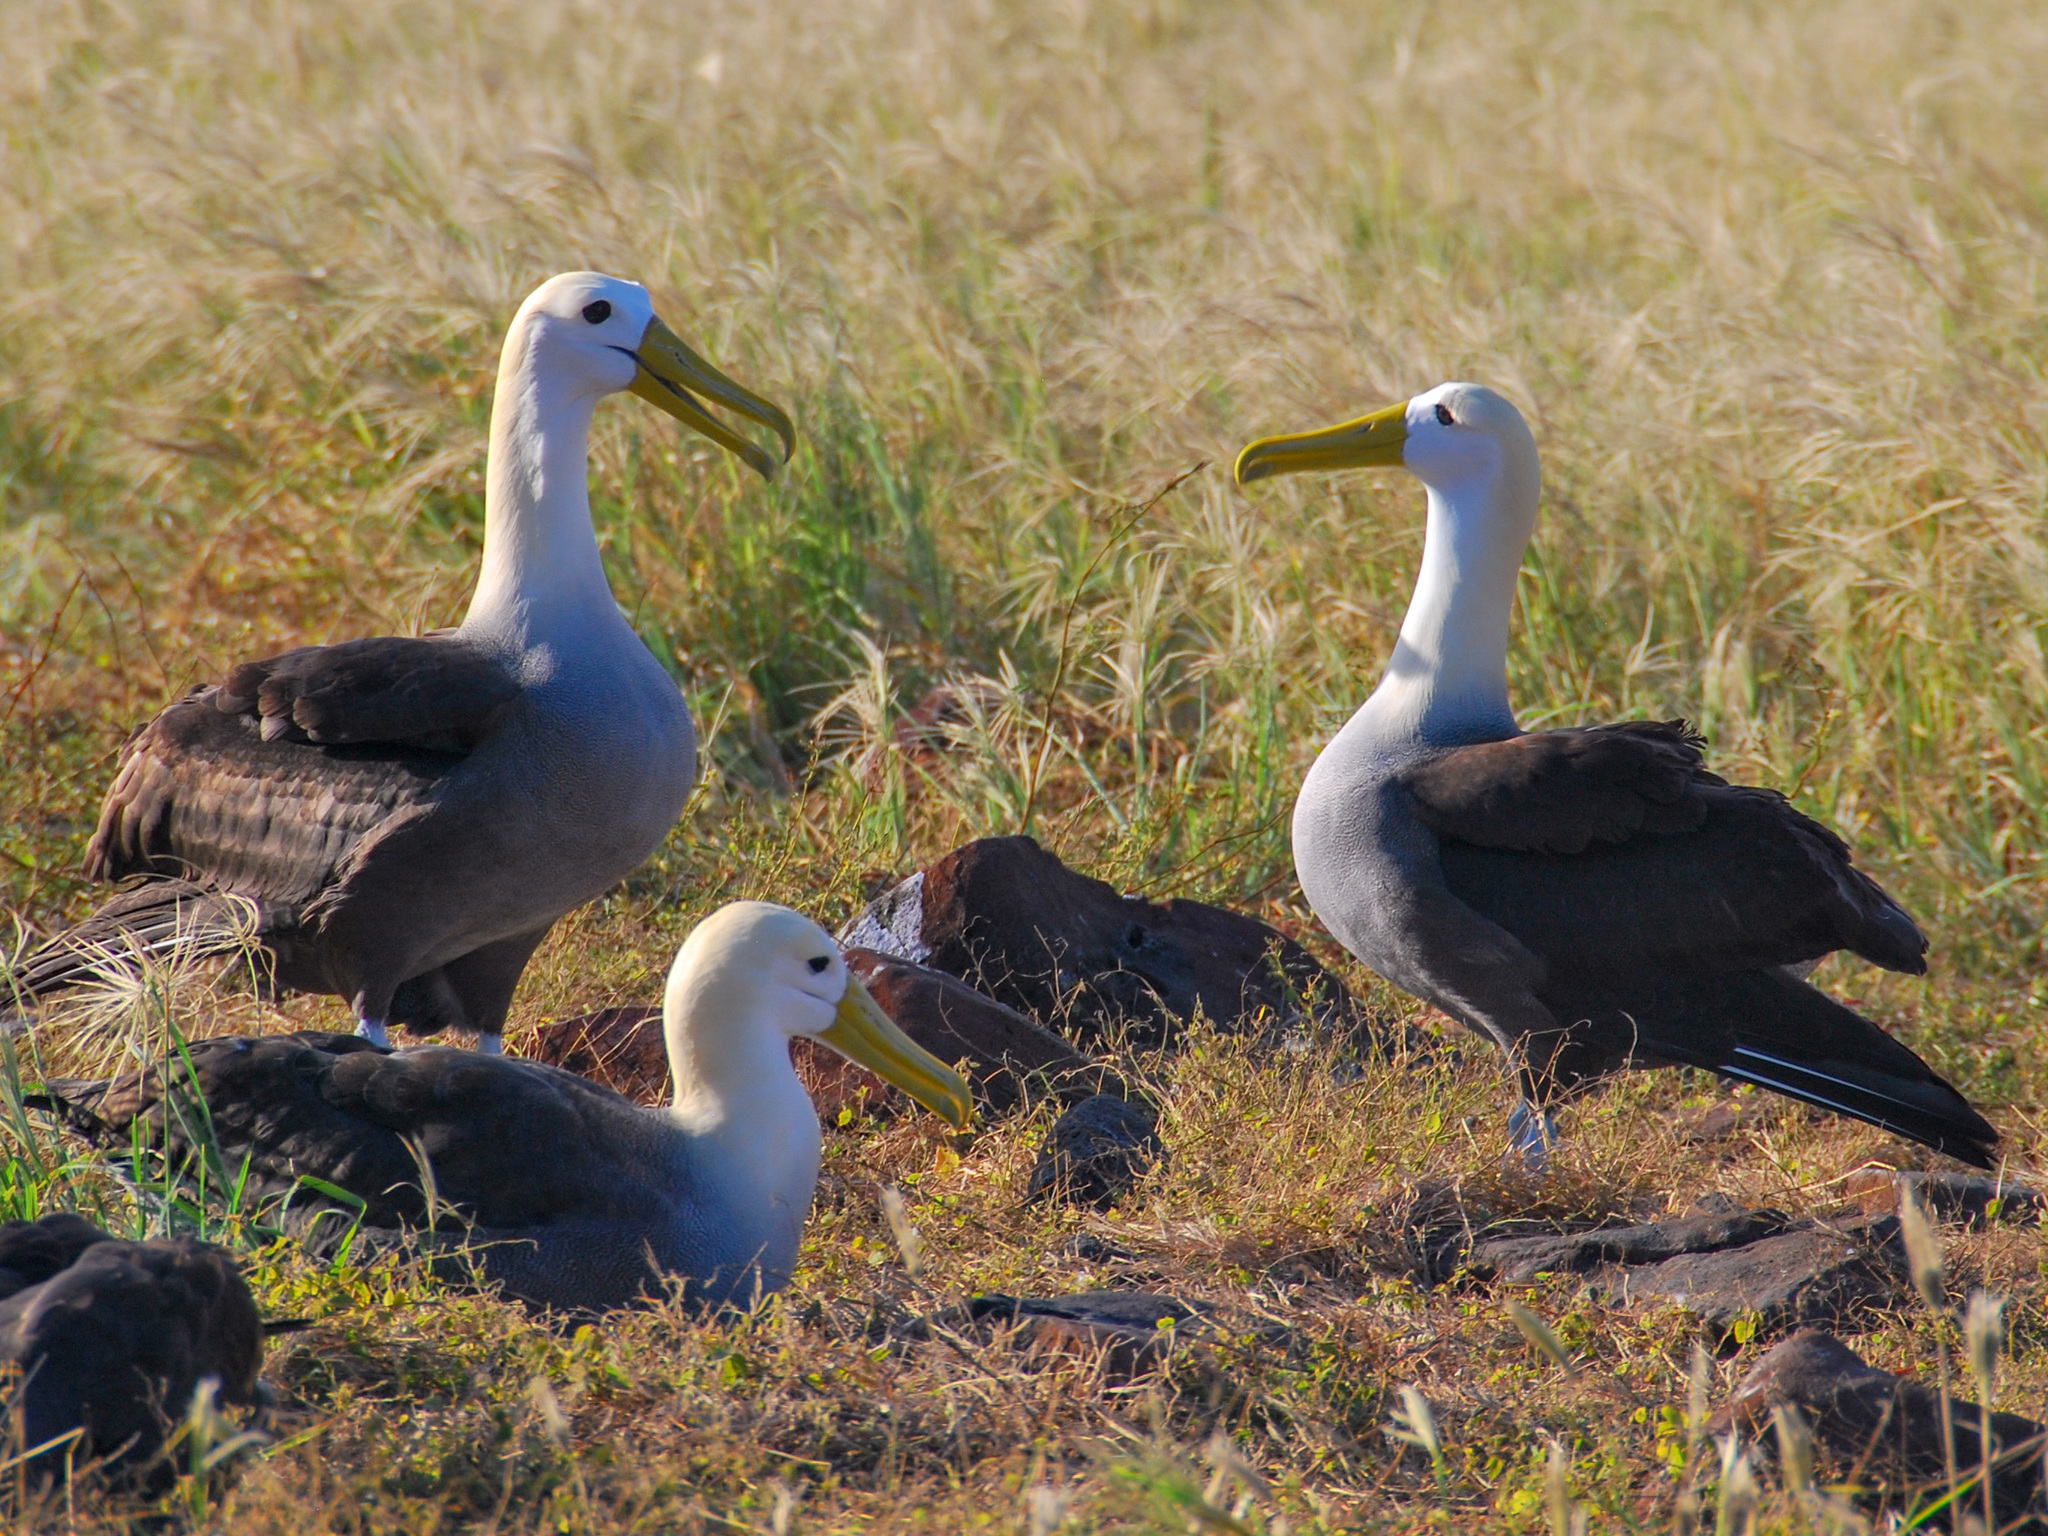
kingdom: Animalia
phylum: Chordata
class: Aves
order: Procellariiformes
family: Diomedeidae
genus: Phoebastria
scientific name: Phoebastria irrorata
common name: Waved albatross
